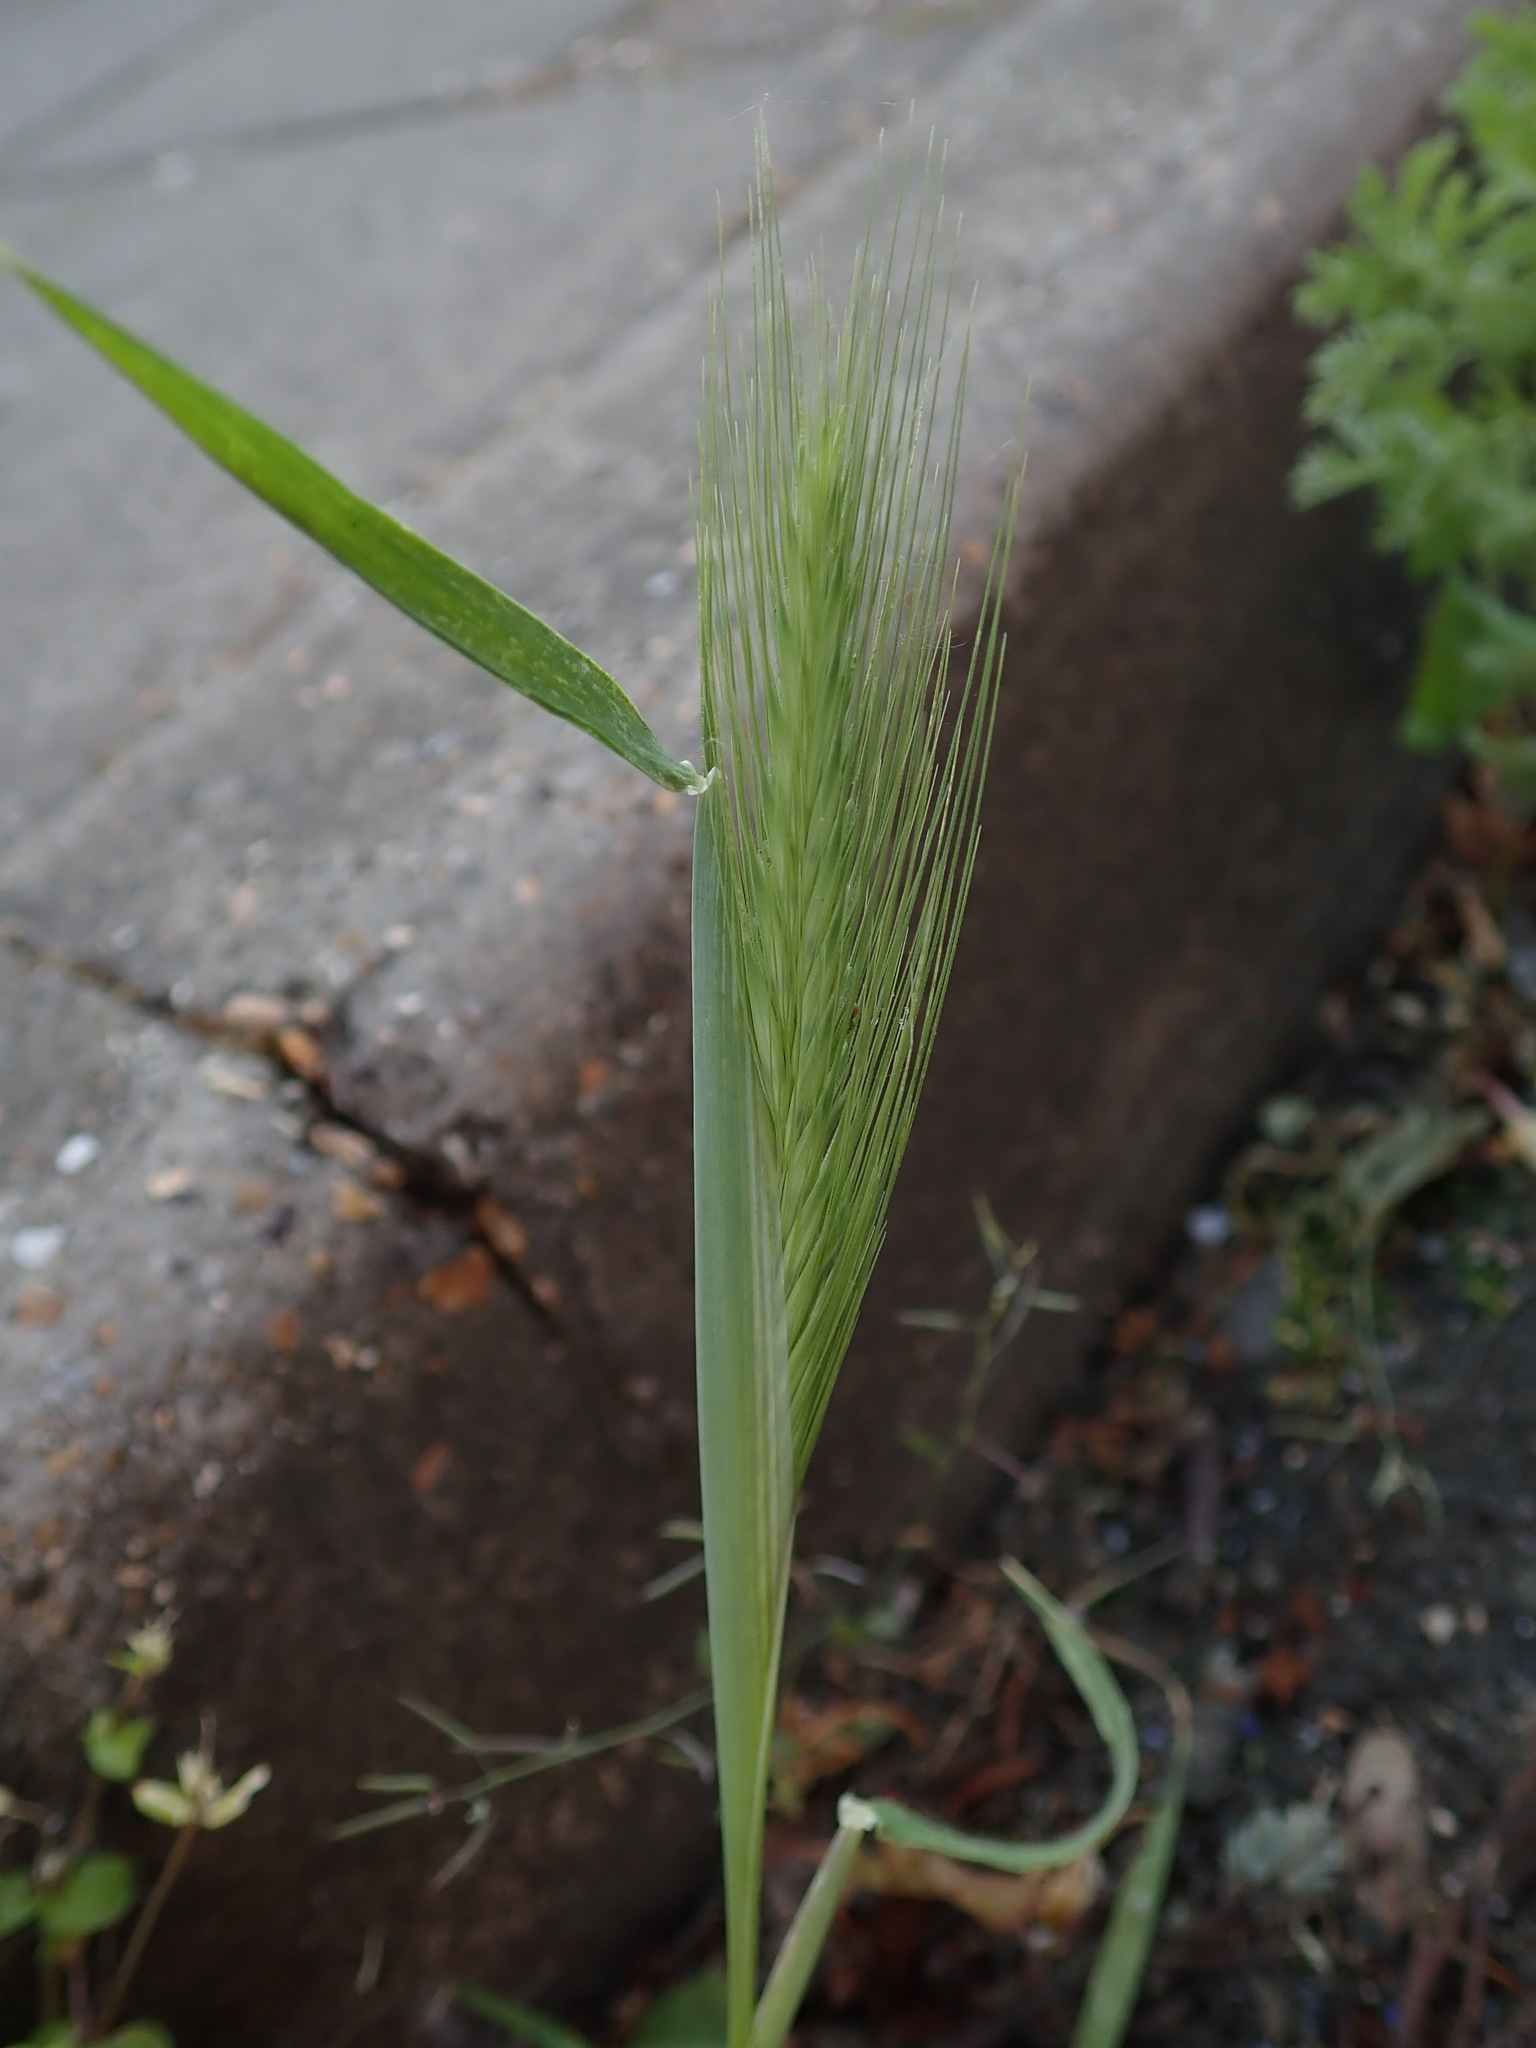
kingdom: Plantae
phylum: Tracheophyta
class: Liliopsida
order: Poales
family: Poaceae
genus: Hordeum
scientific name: Hordeum murinum
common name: Wall barley
